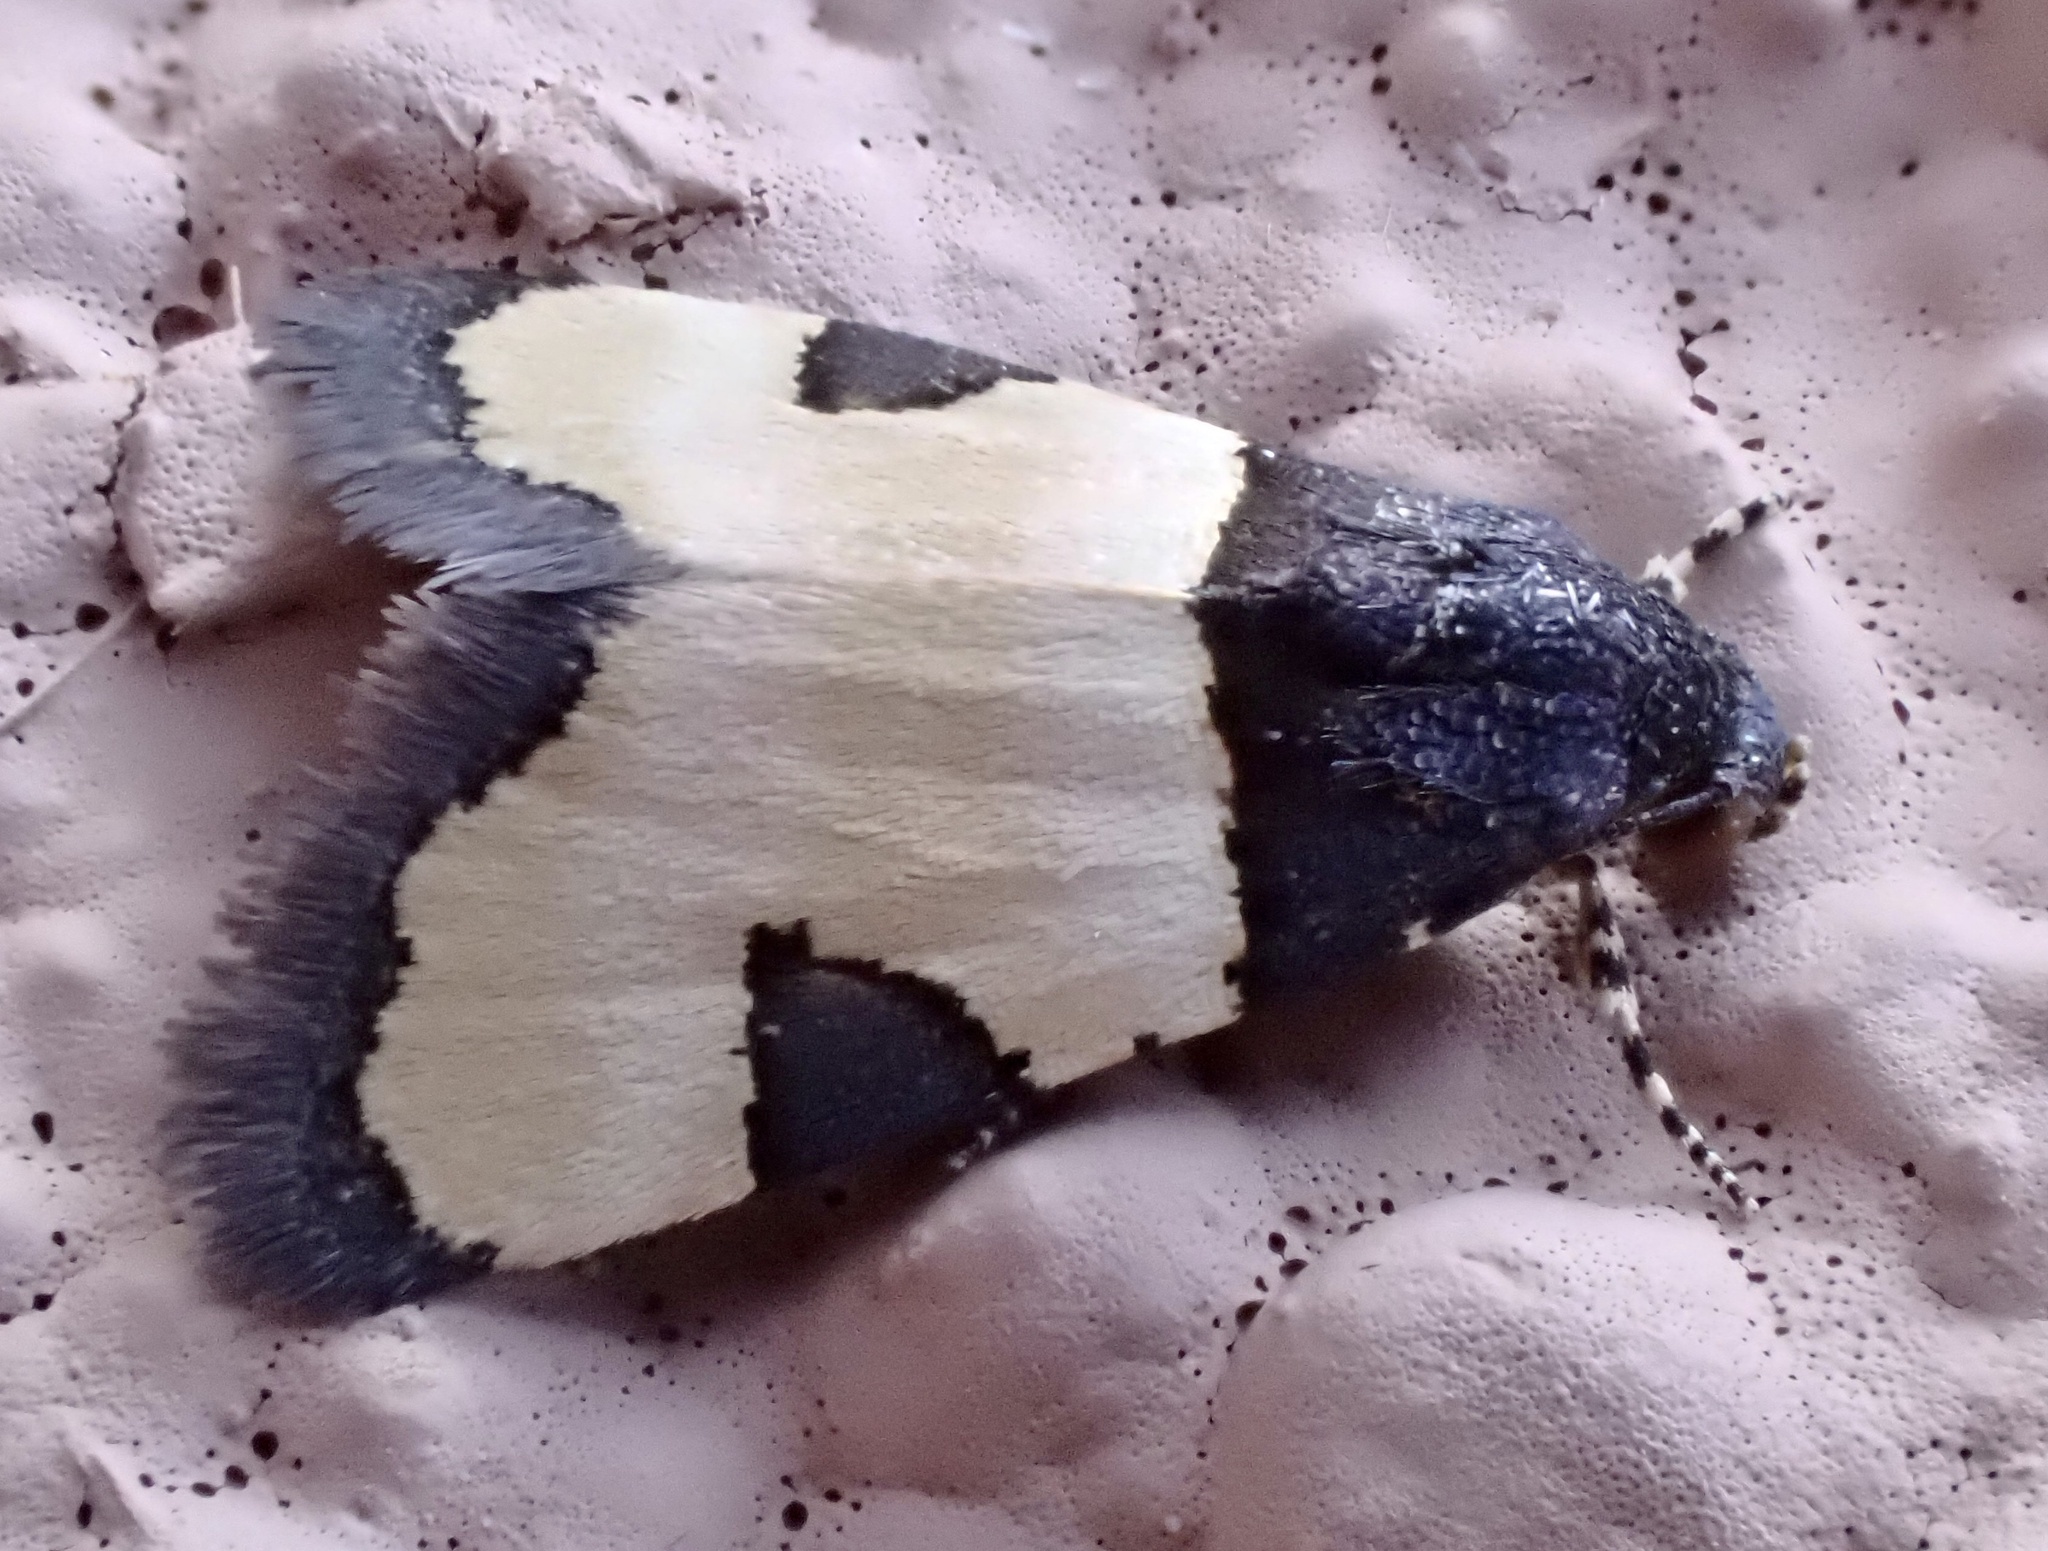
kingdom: Animalia
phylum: Arthropoda
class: Insecta
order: Lepidoptera
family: Noctuidae
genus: Thalerastria
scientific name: Thalerastria lehmanni
